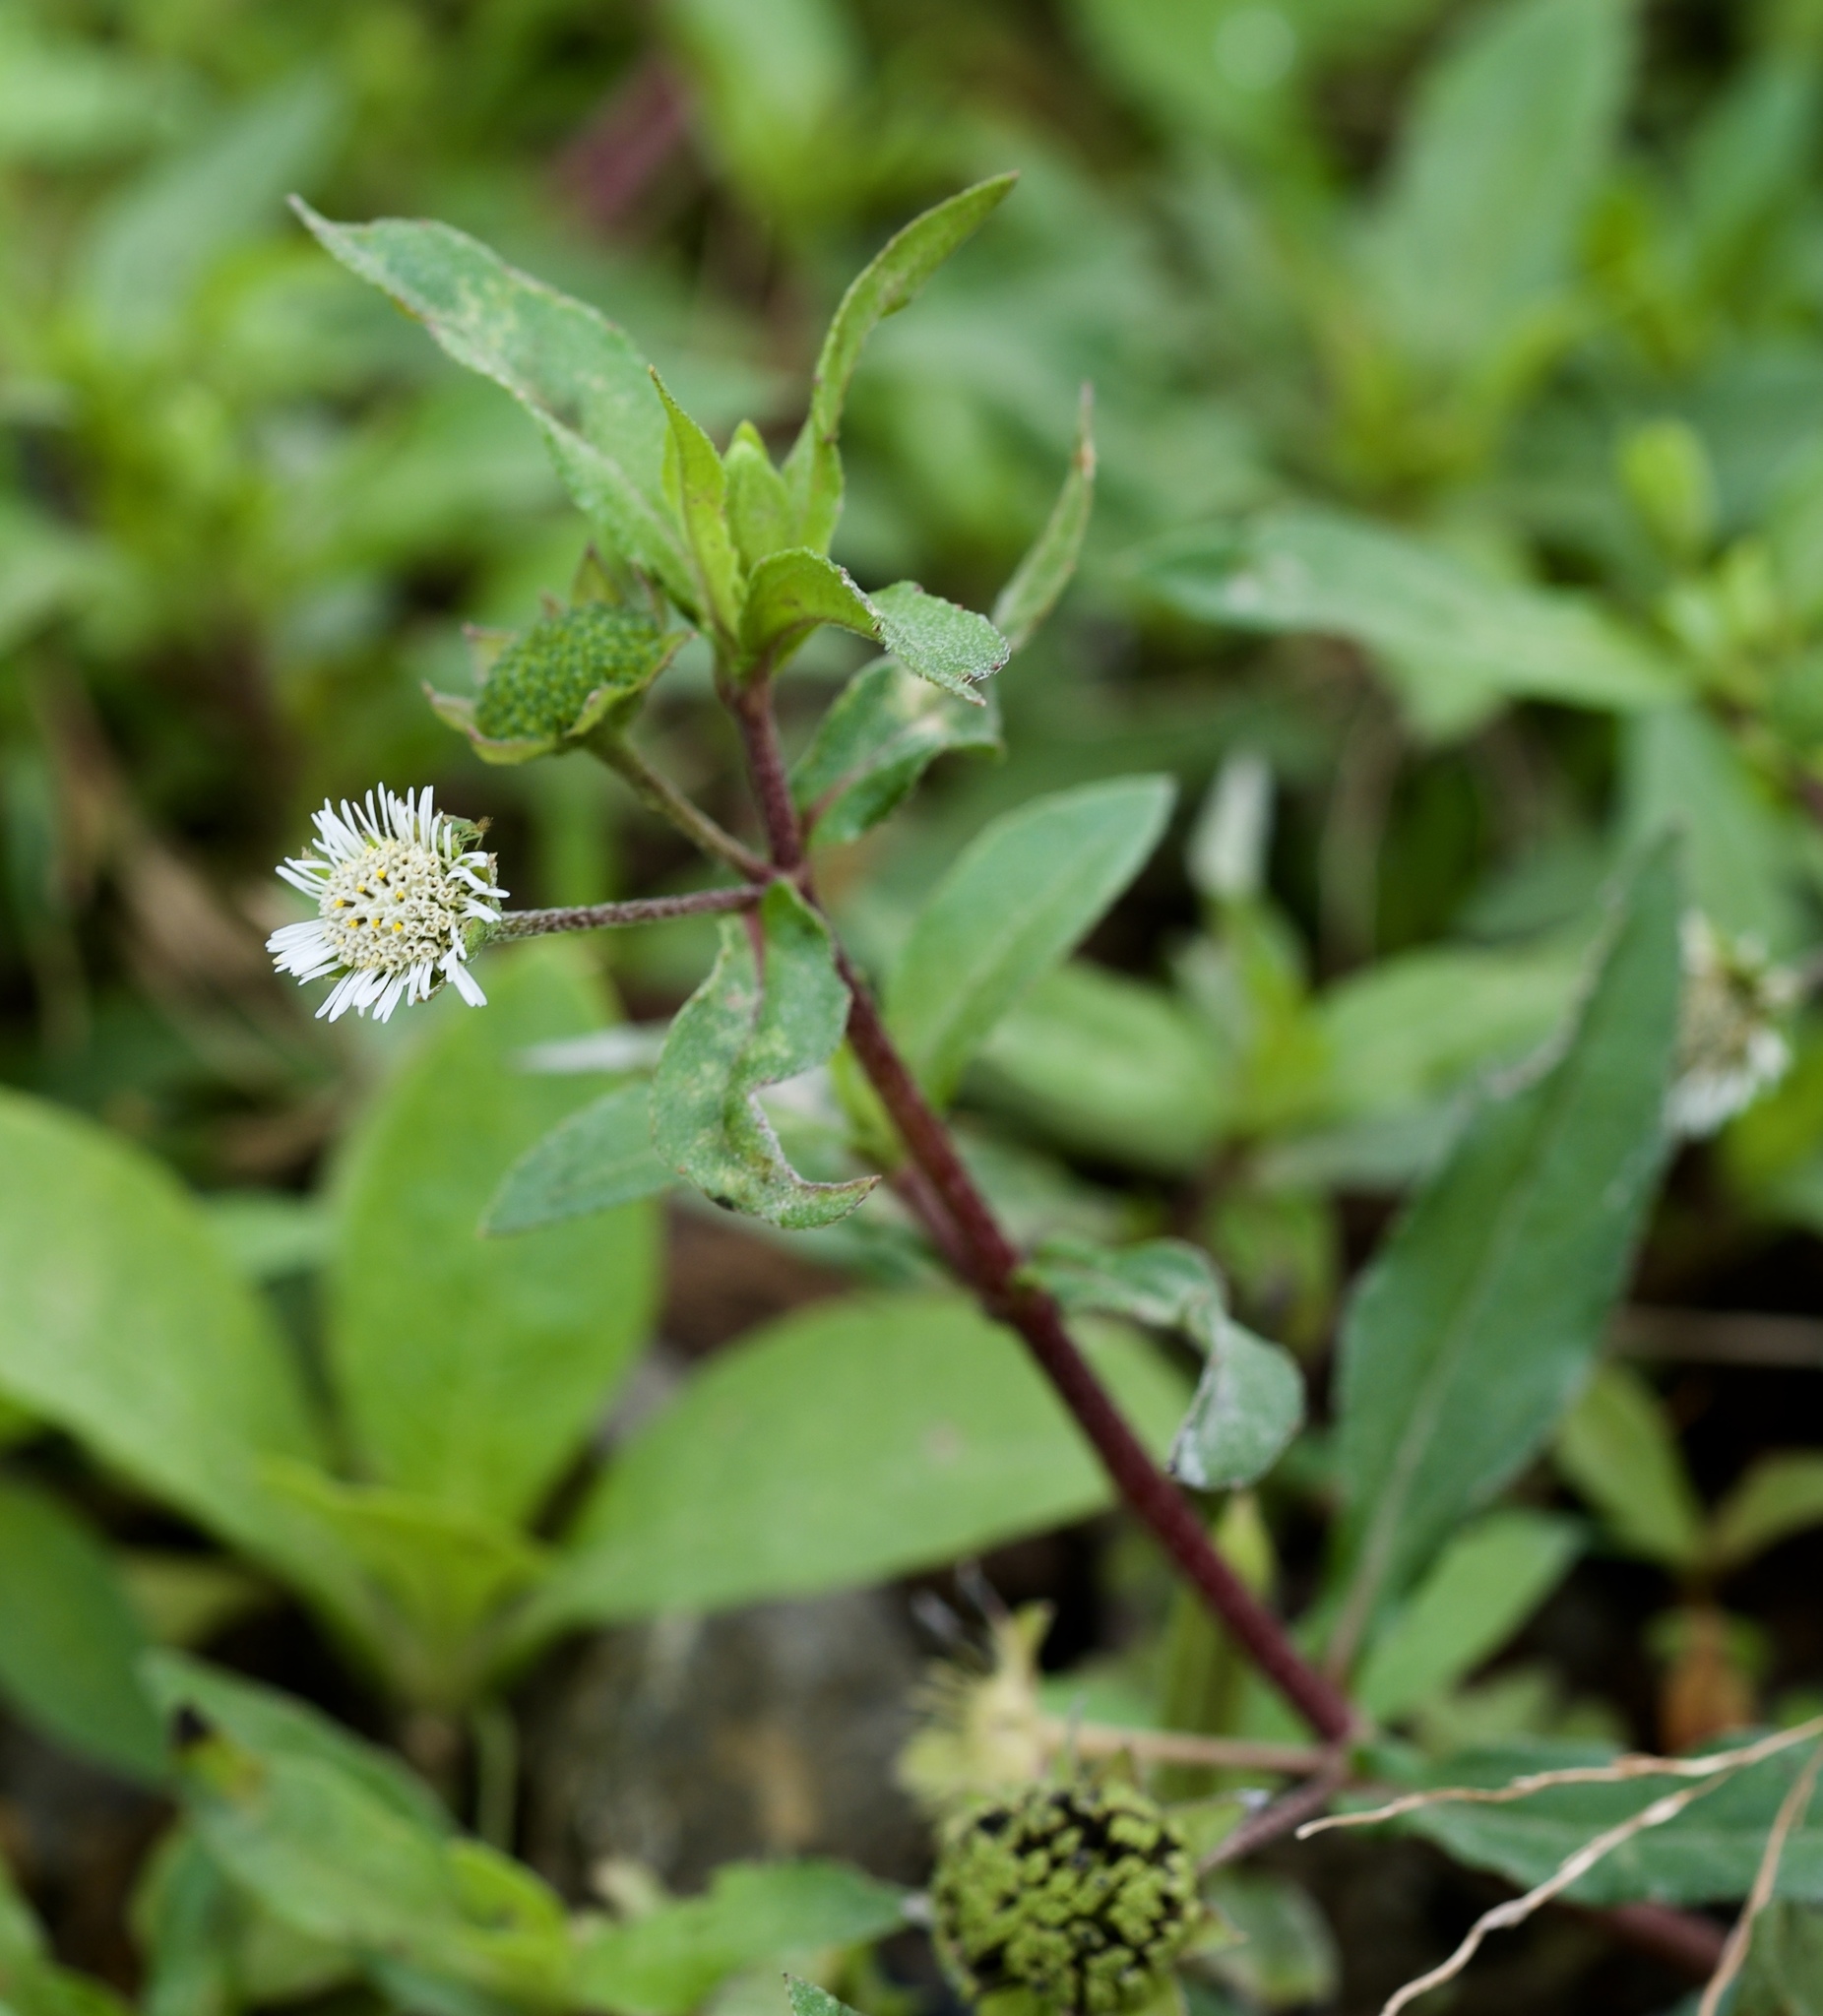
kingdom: Plantae
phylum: Tracheophyta
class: Magnoliopsida
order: Asterales
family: Asteraceae
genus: Eclipta
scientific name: Eclipta prostrata
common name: False daisy
